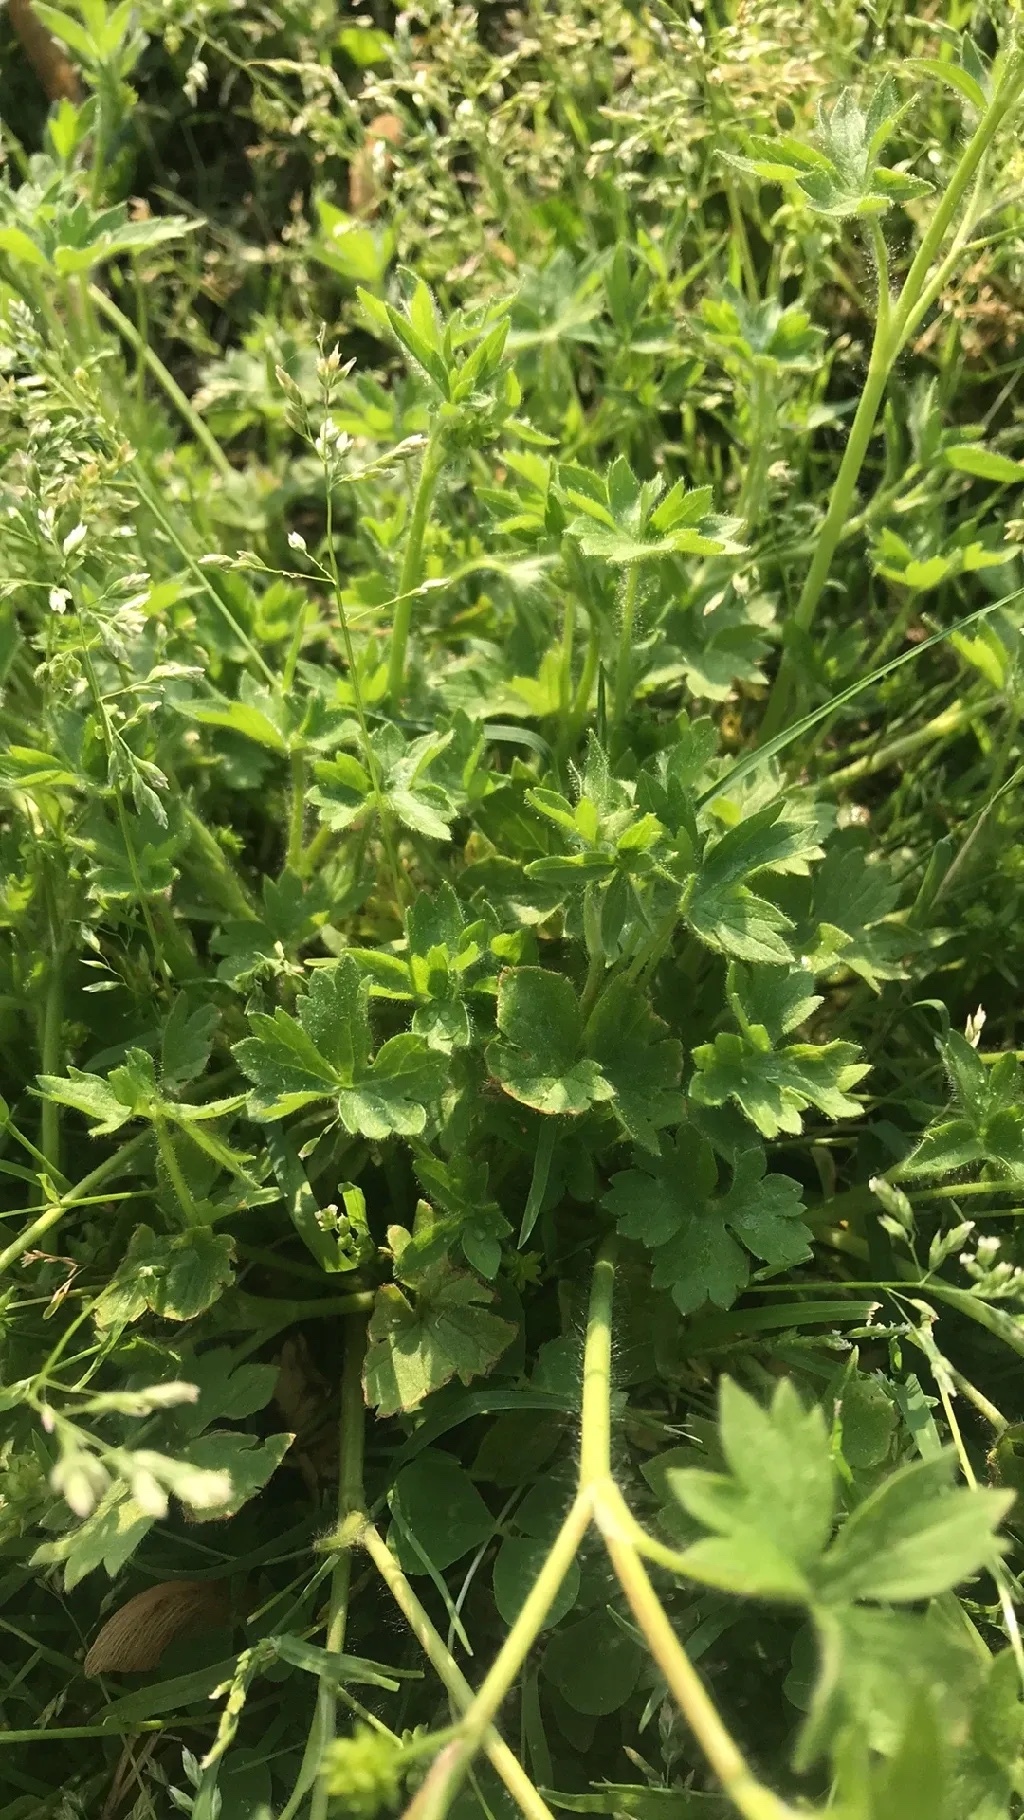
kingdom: Plantae
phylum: Tracheophyta
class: Magnoliopsida
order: Ranunculales
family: Ranunculaceae
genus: Ranunculus
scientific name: Ranunculus parviflorus
